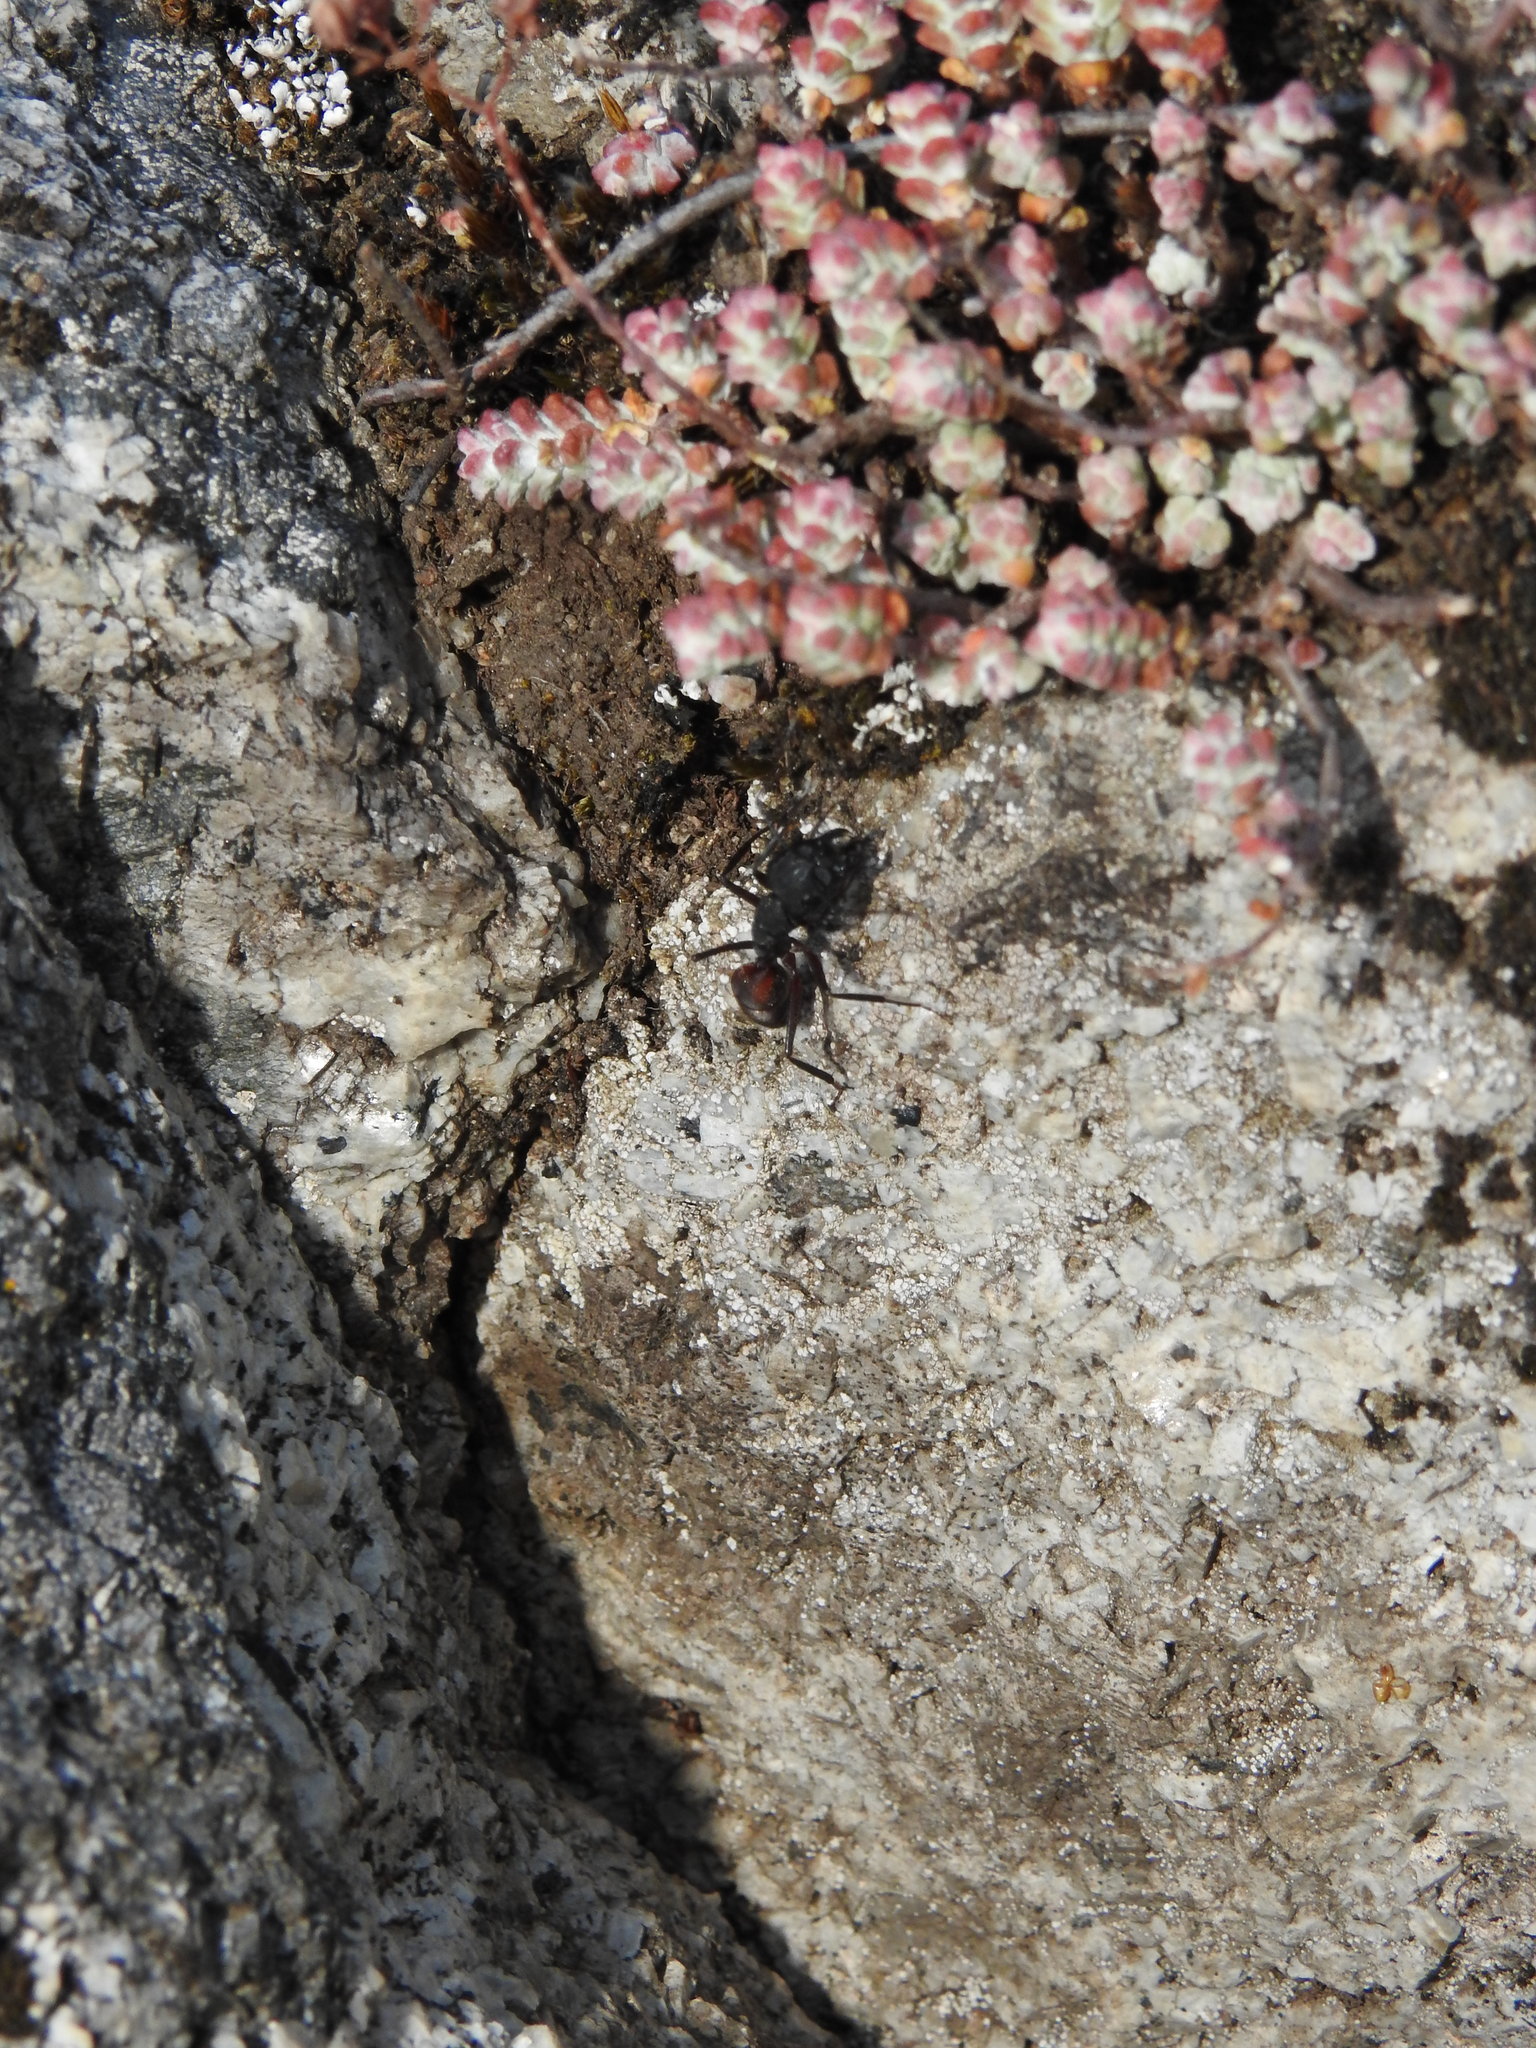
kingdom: Animalia
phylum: Arthropoda
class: Insecta
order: Hymenoptera
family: Formicidae
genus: Camponotus
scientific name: Camponotus cruentatus
